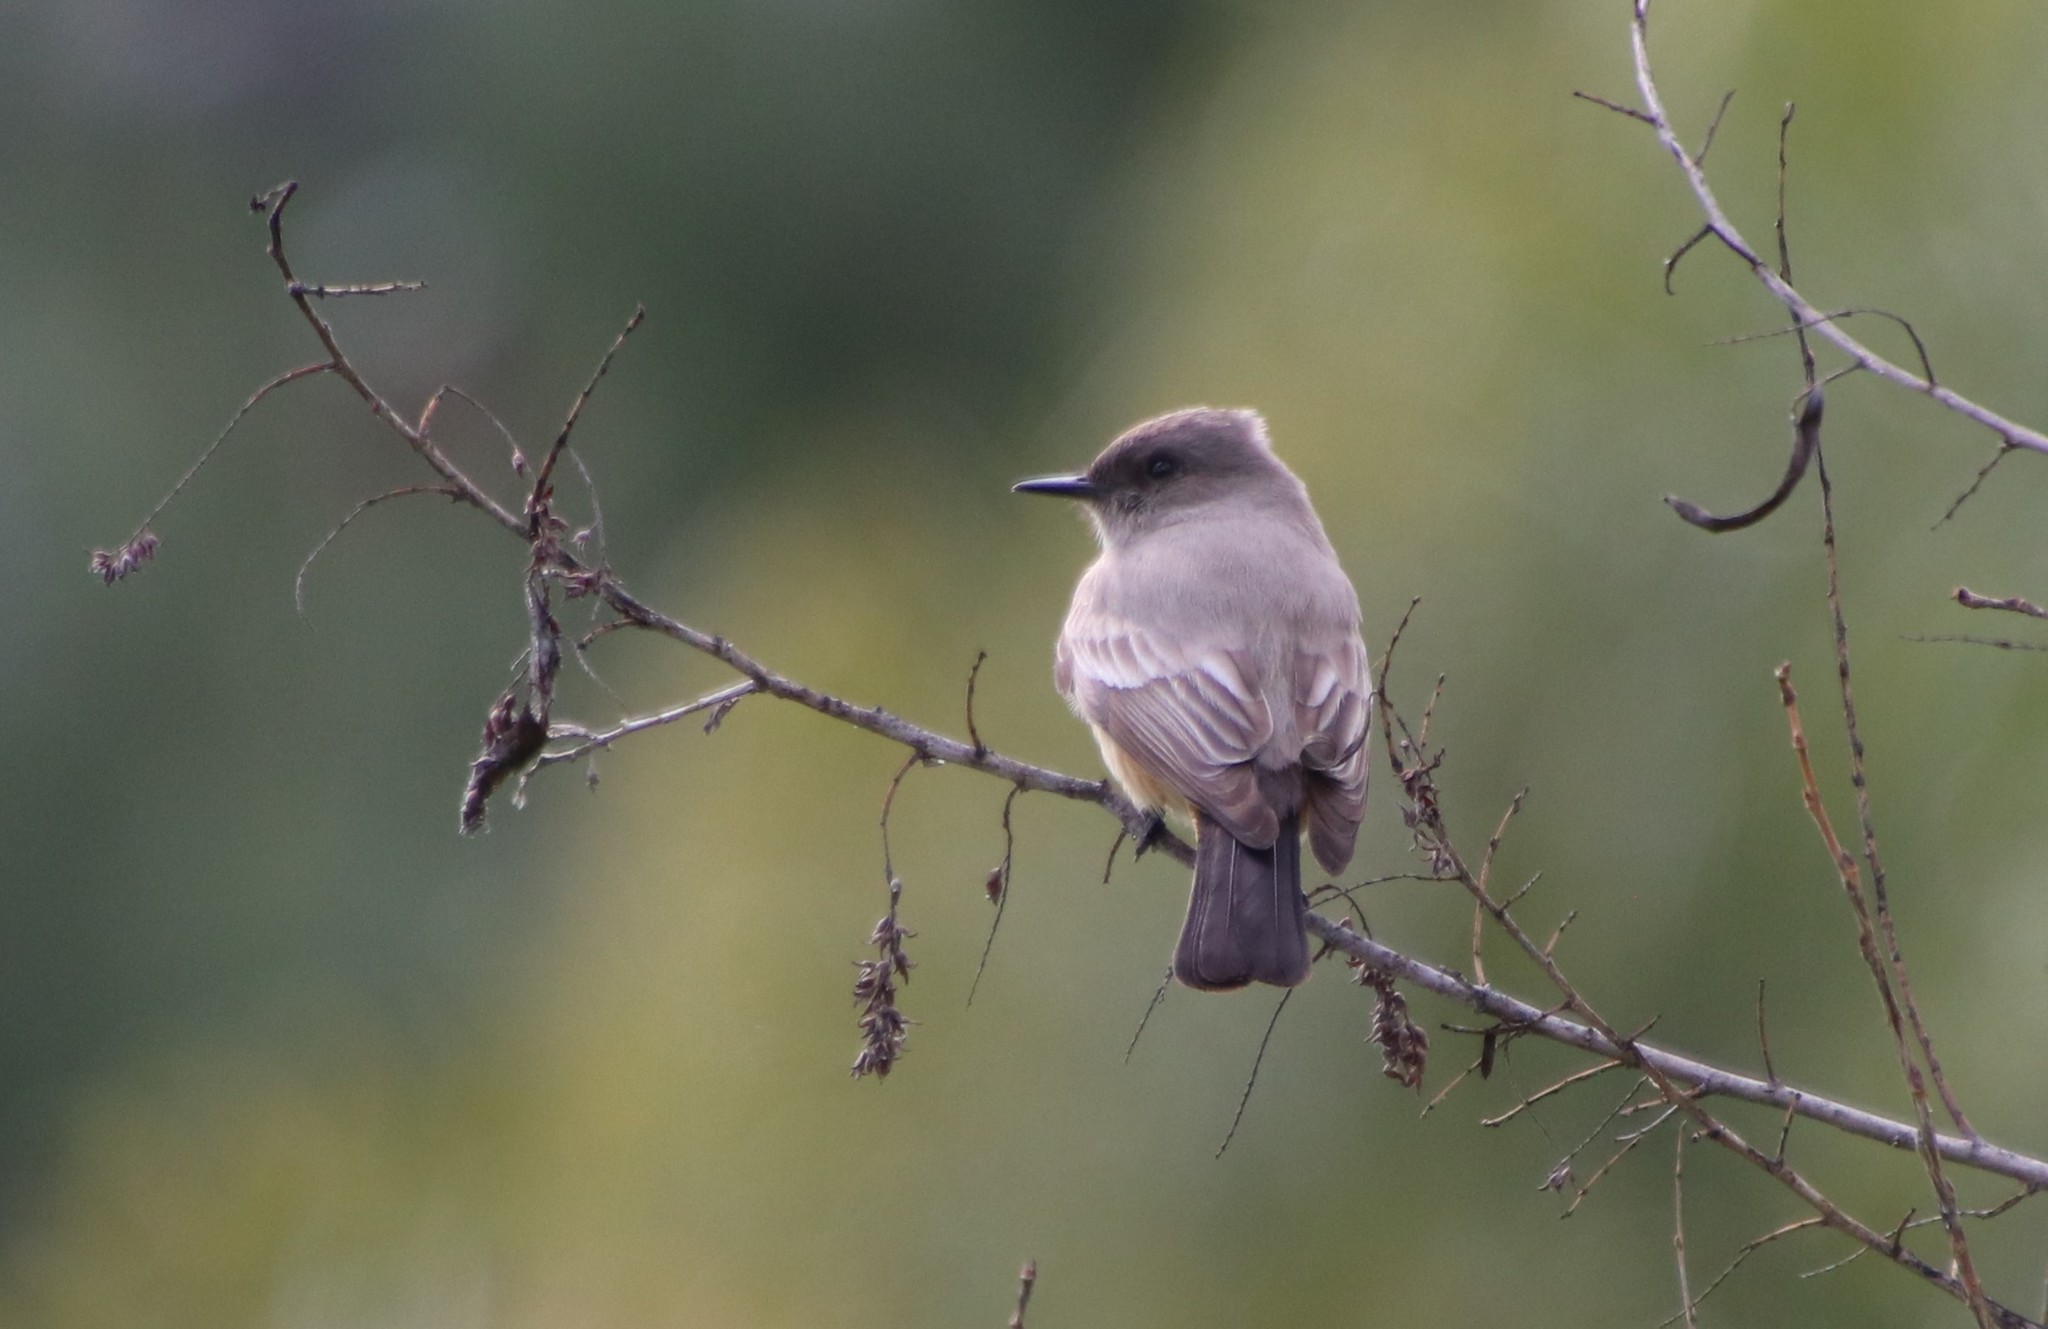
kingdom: Animalia
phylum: Chordata
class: Aves
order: Passeriformes
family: Tyrannidae
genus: Sayornis
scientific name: Sayornis saya
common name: Say's phoebe
